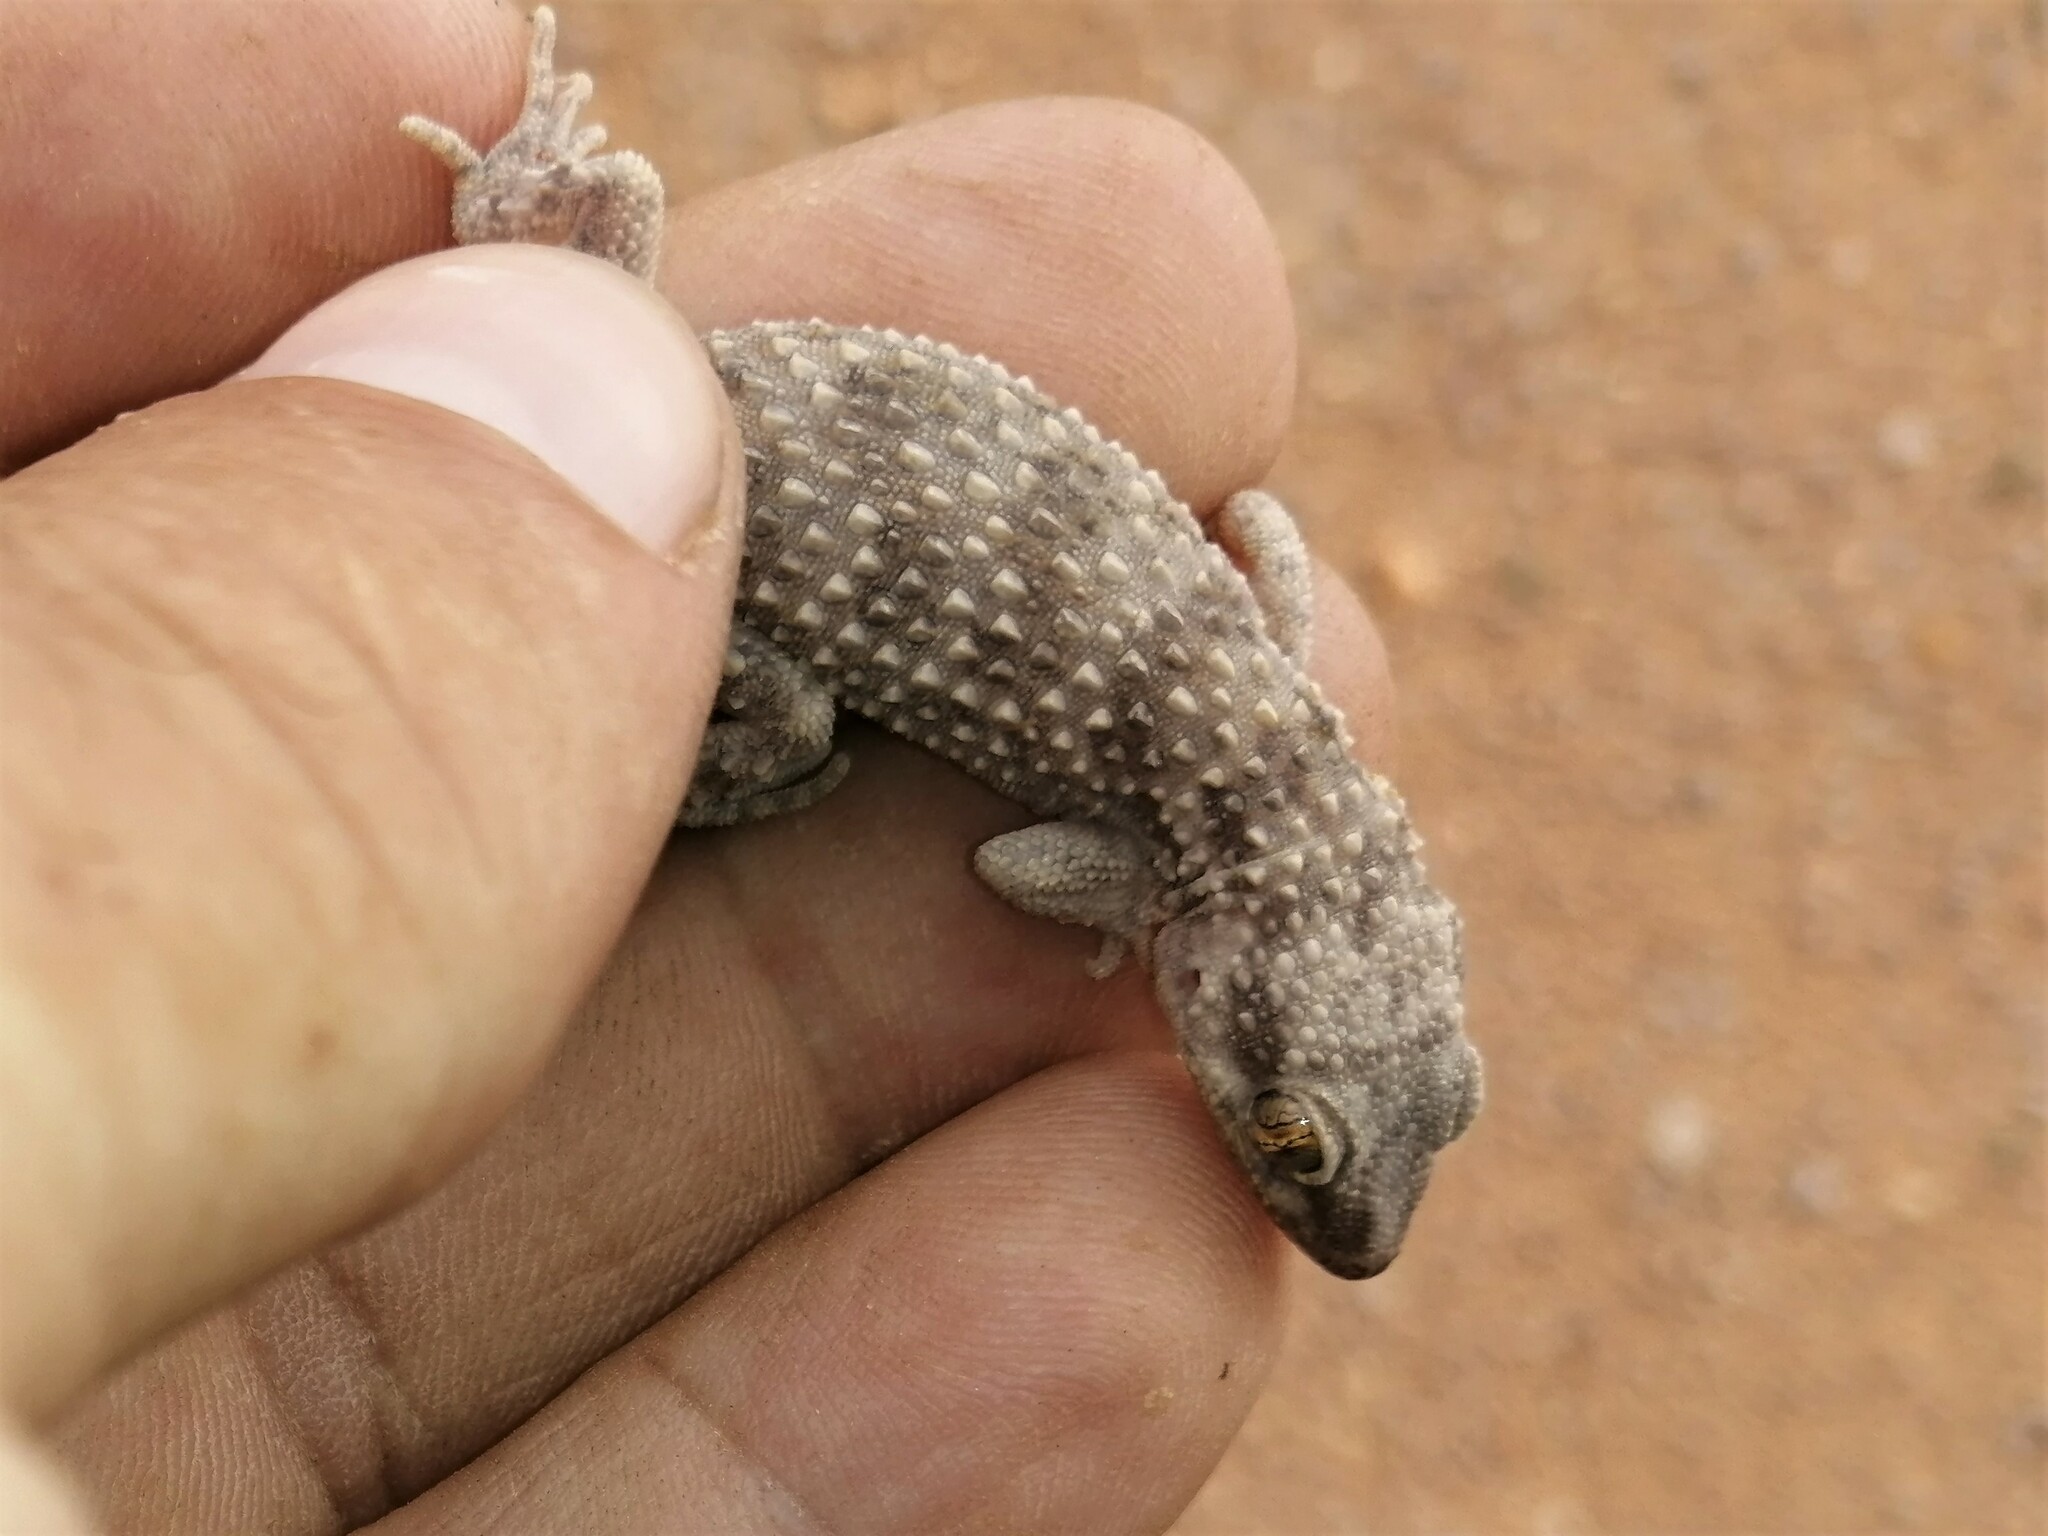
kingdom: Animalia
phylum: Chordata
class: Squamata
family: Gekkonidae
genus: Bunopus
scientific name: Bunopus tuberculatus
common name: Southern tuberculated gecko
